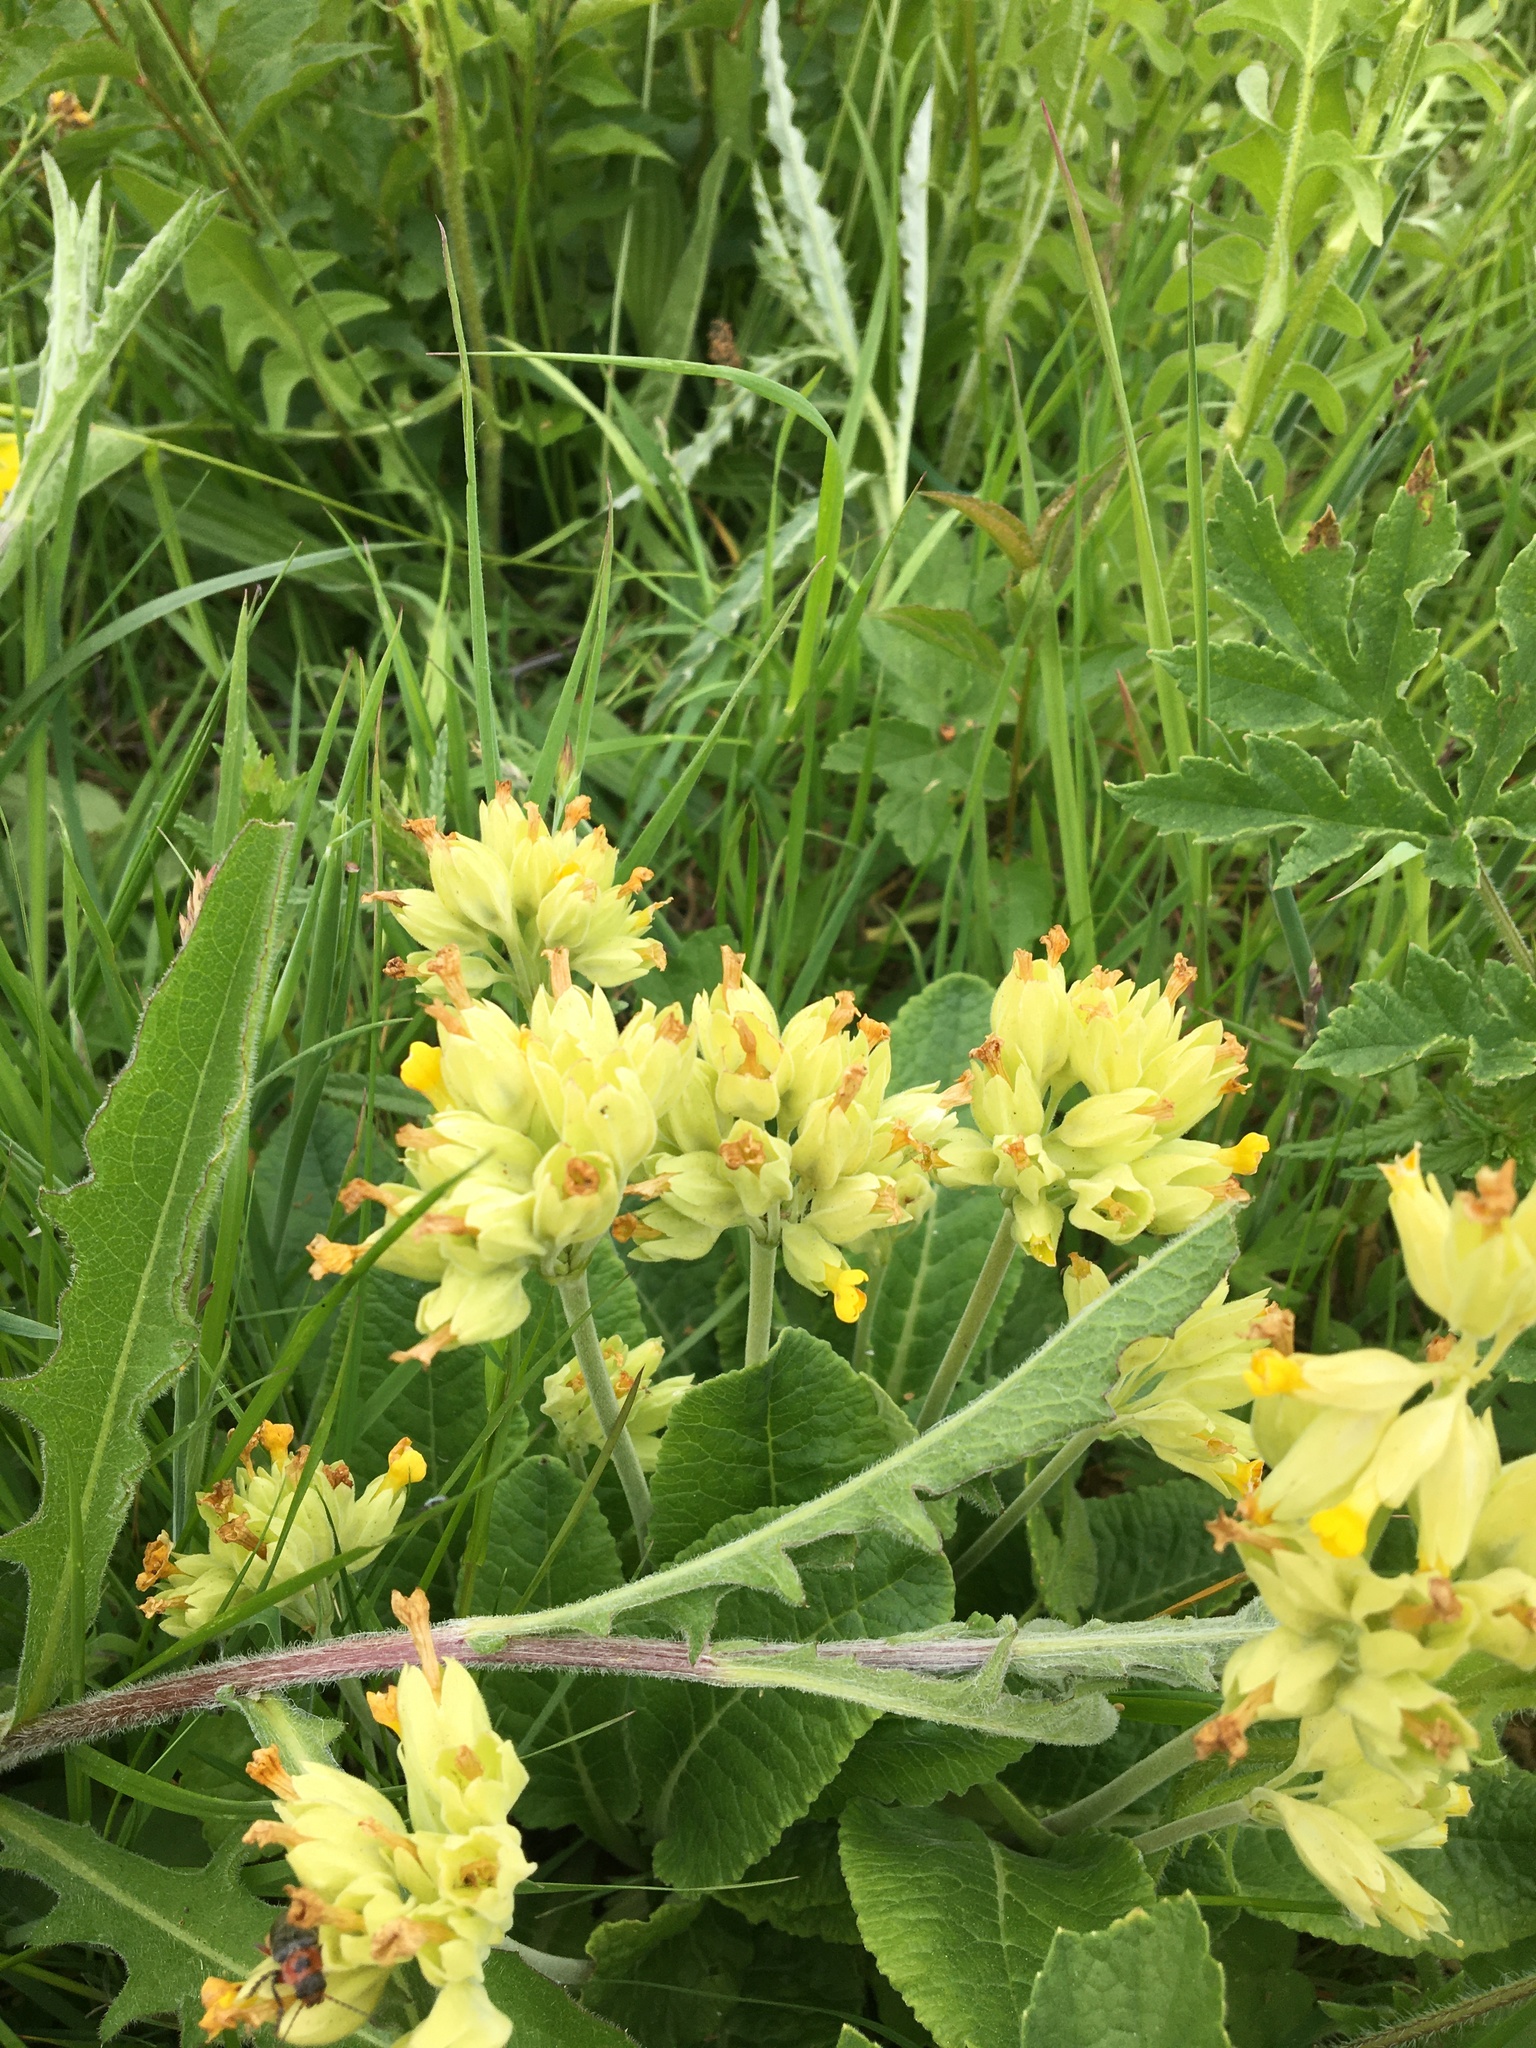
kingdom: Plantae
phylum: Tracheophyta
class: Magnoliopsida
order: Ericales
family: Primulaceae
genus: Primula
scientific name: Primula veris
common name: Cowslip
